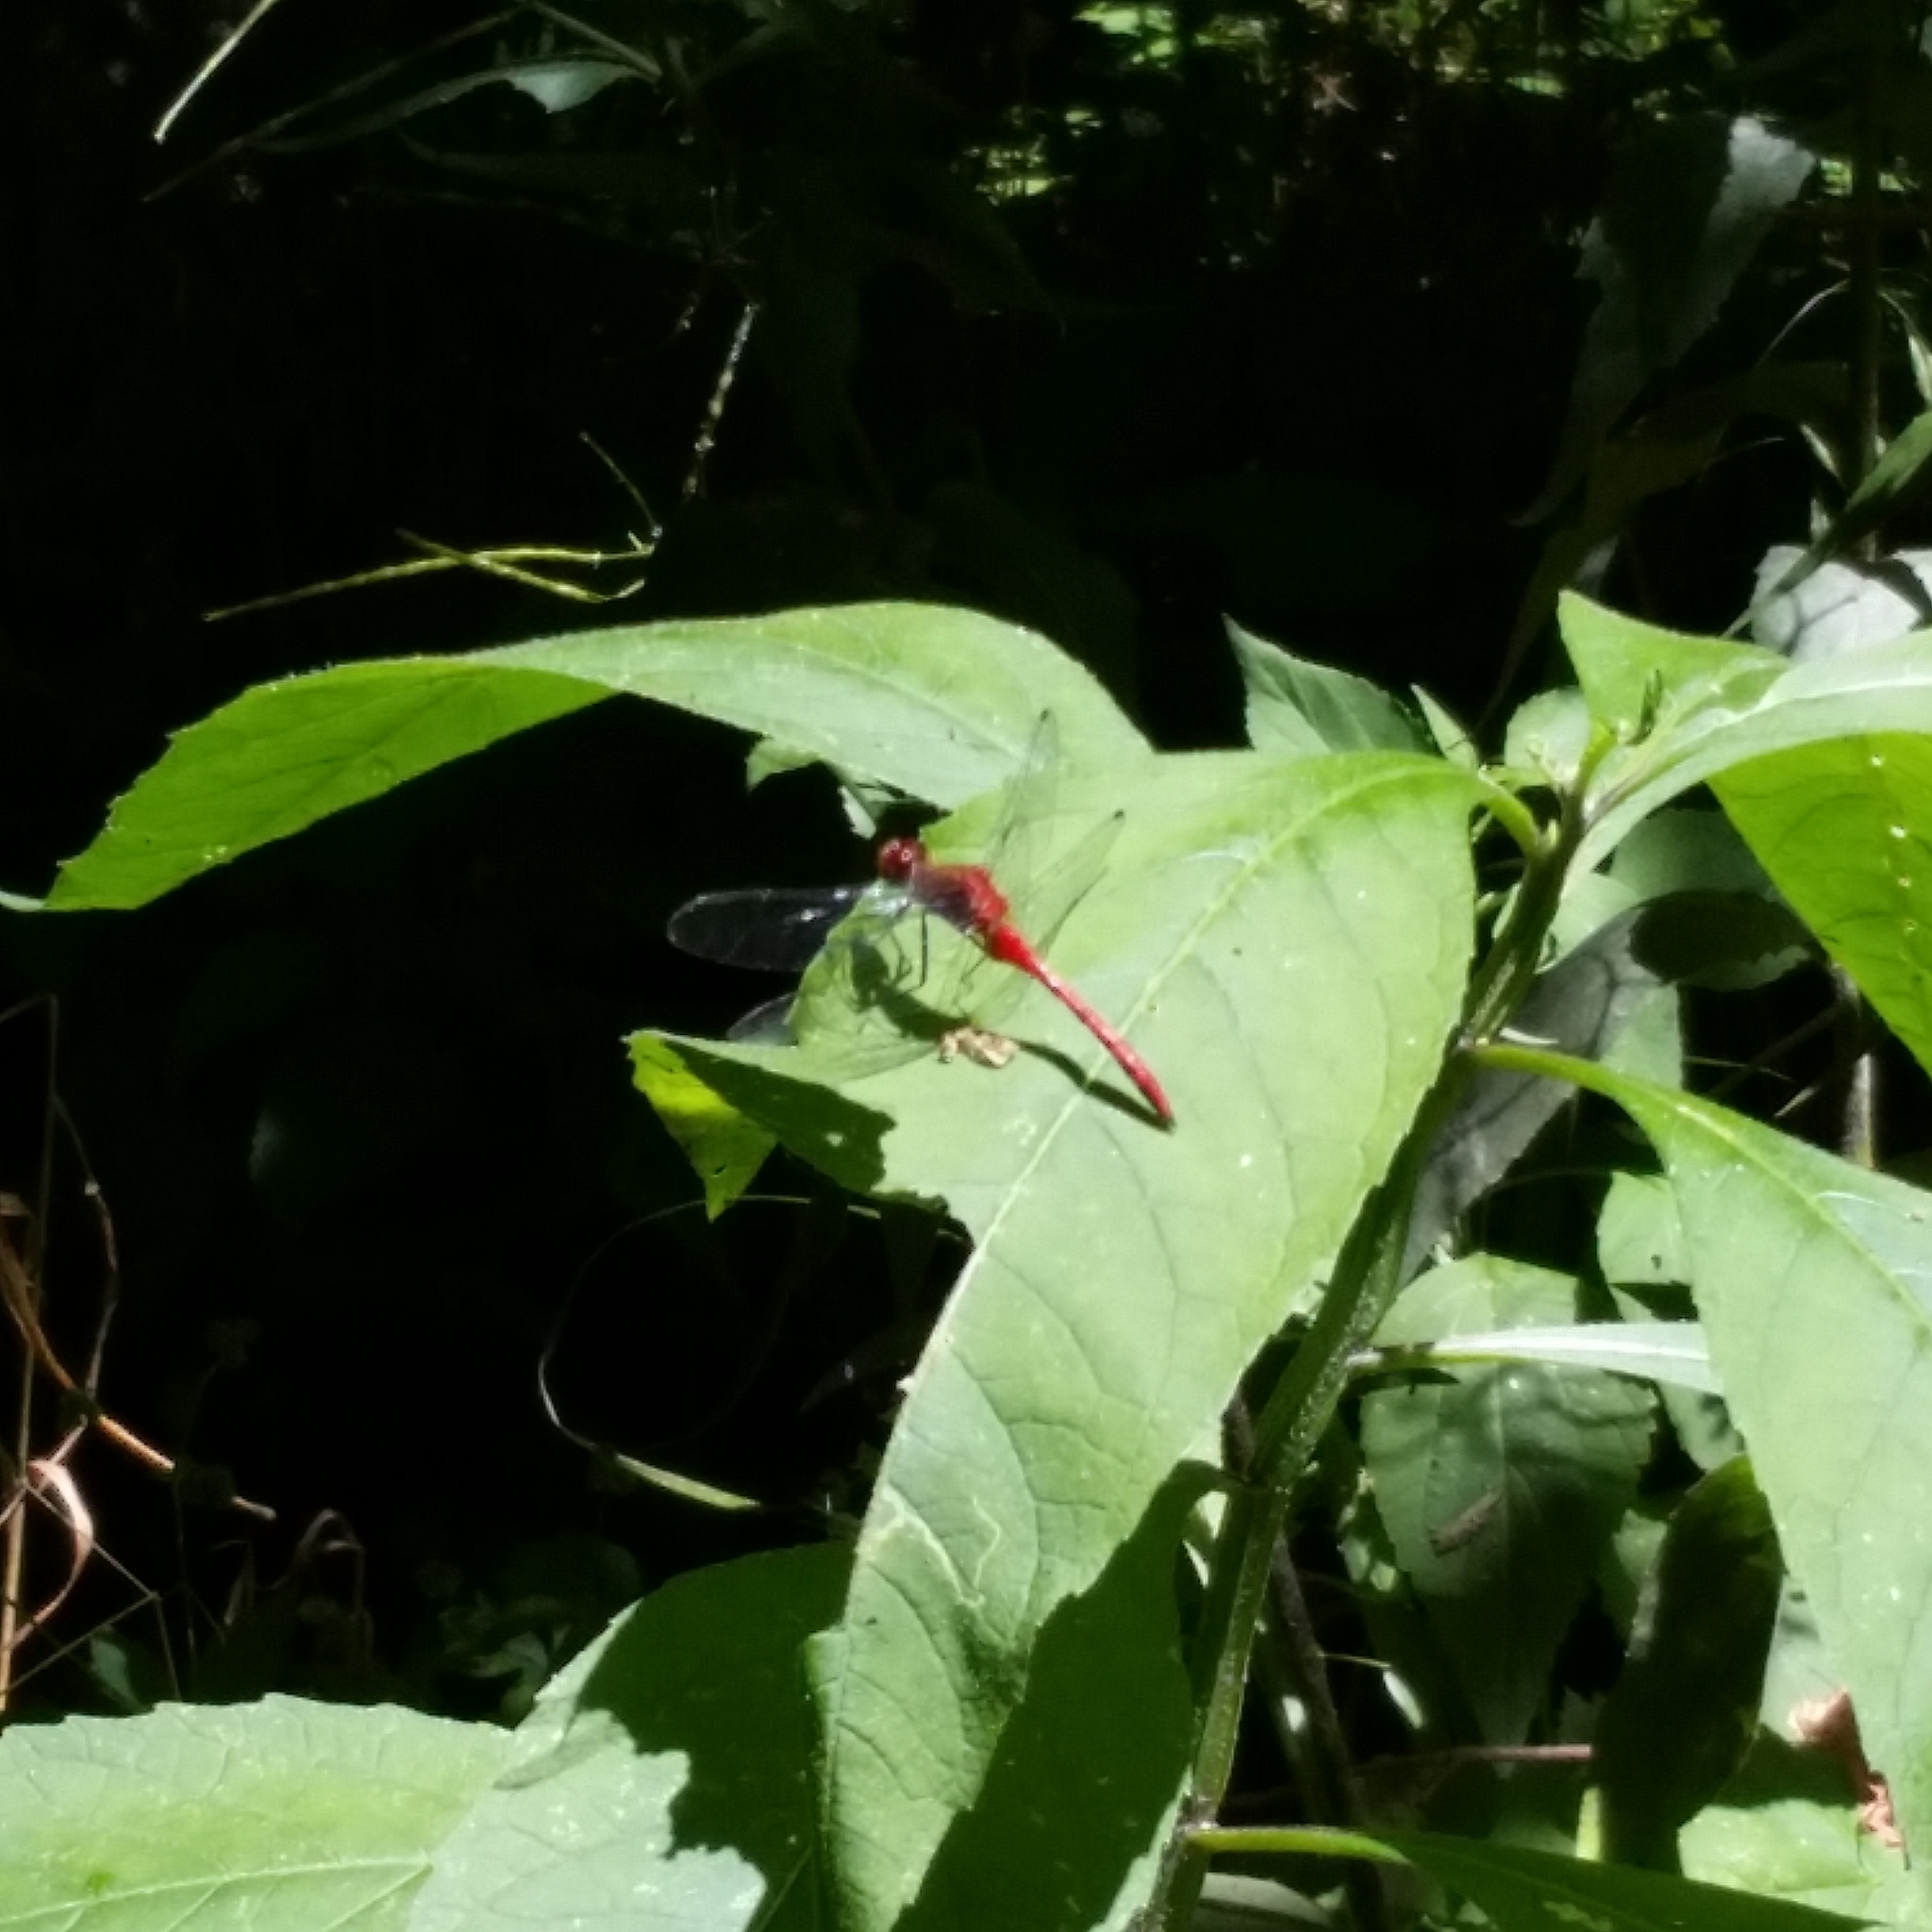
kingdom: Animalia
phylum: Arthropoda
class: Insecta
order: Odonata
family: Libellulidae
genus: Sympetrum
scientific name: Sympetrum
